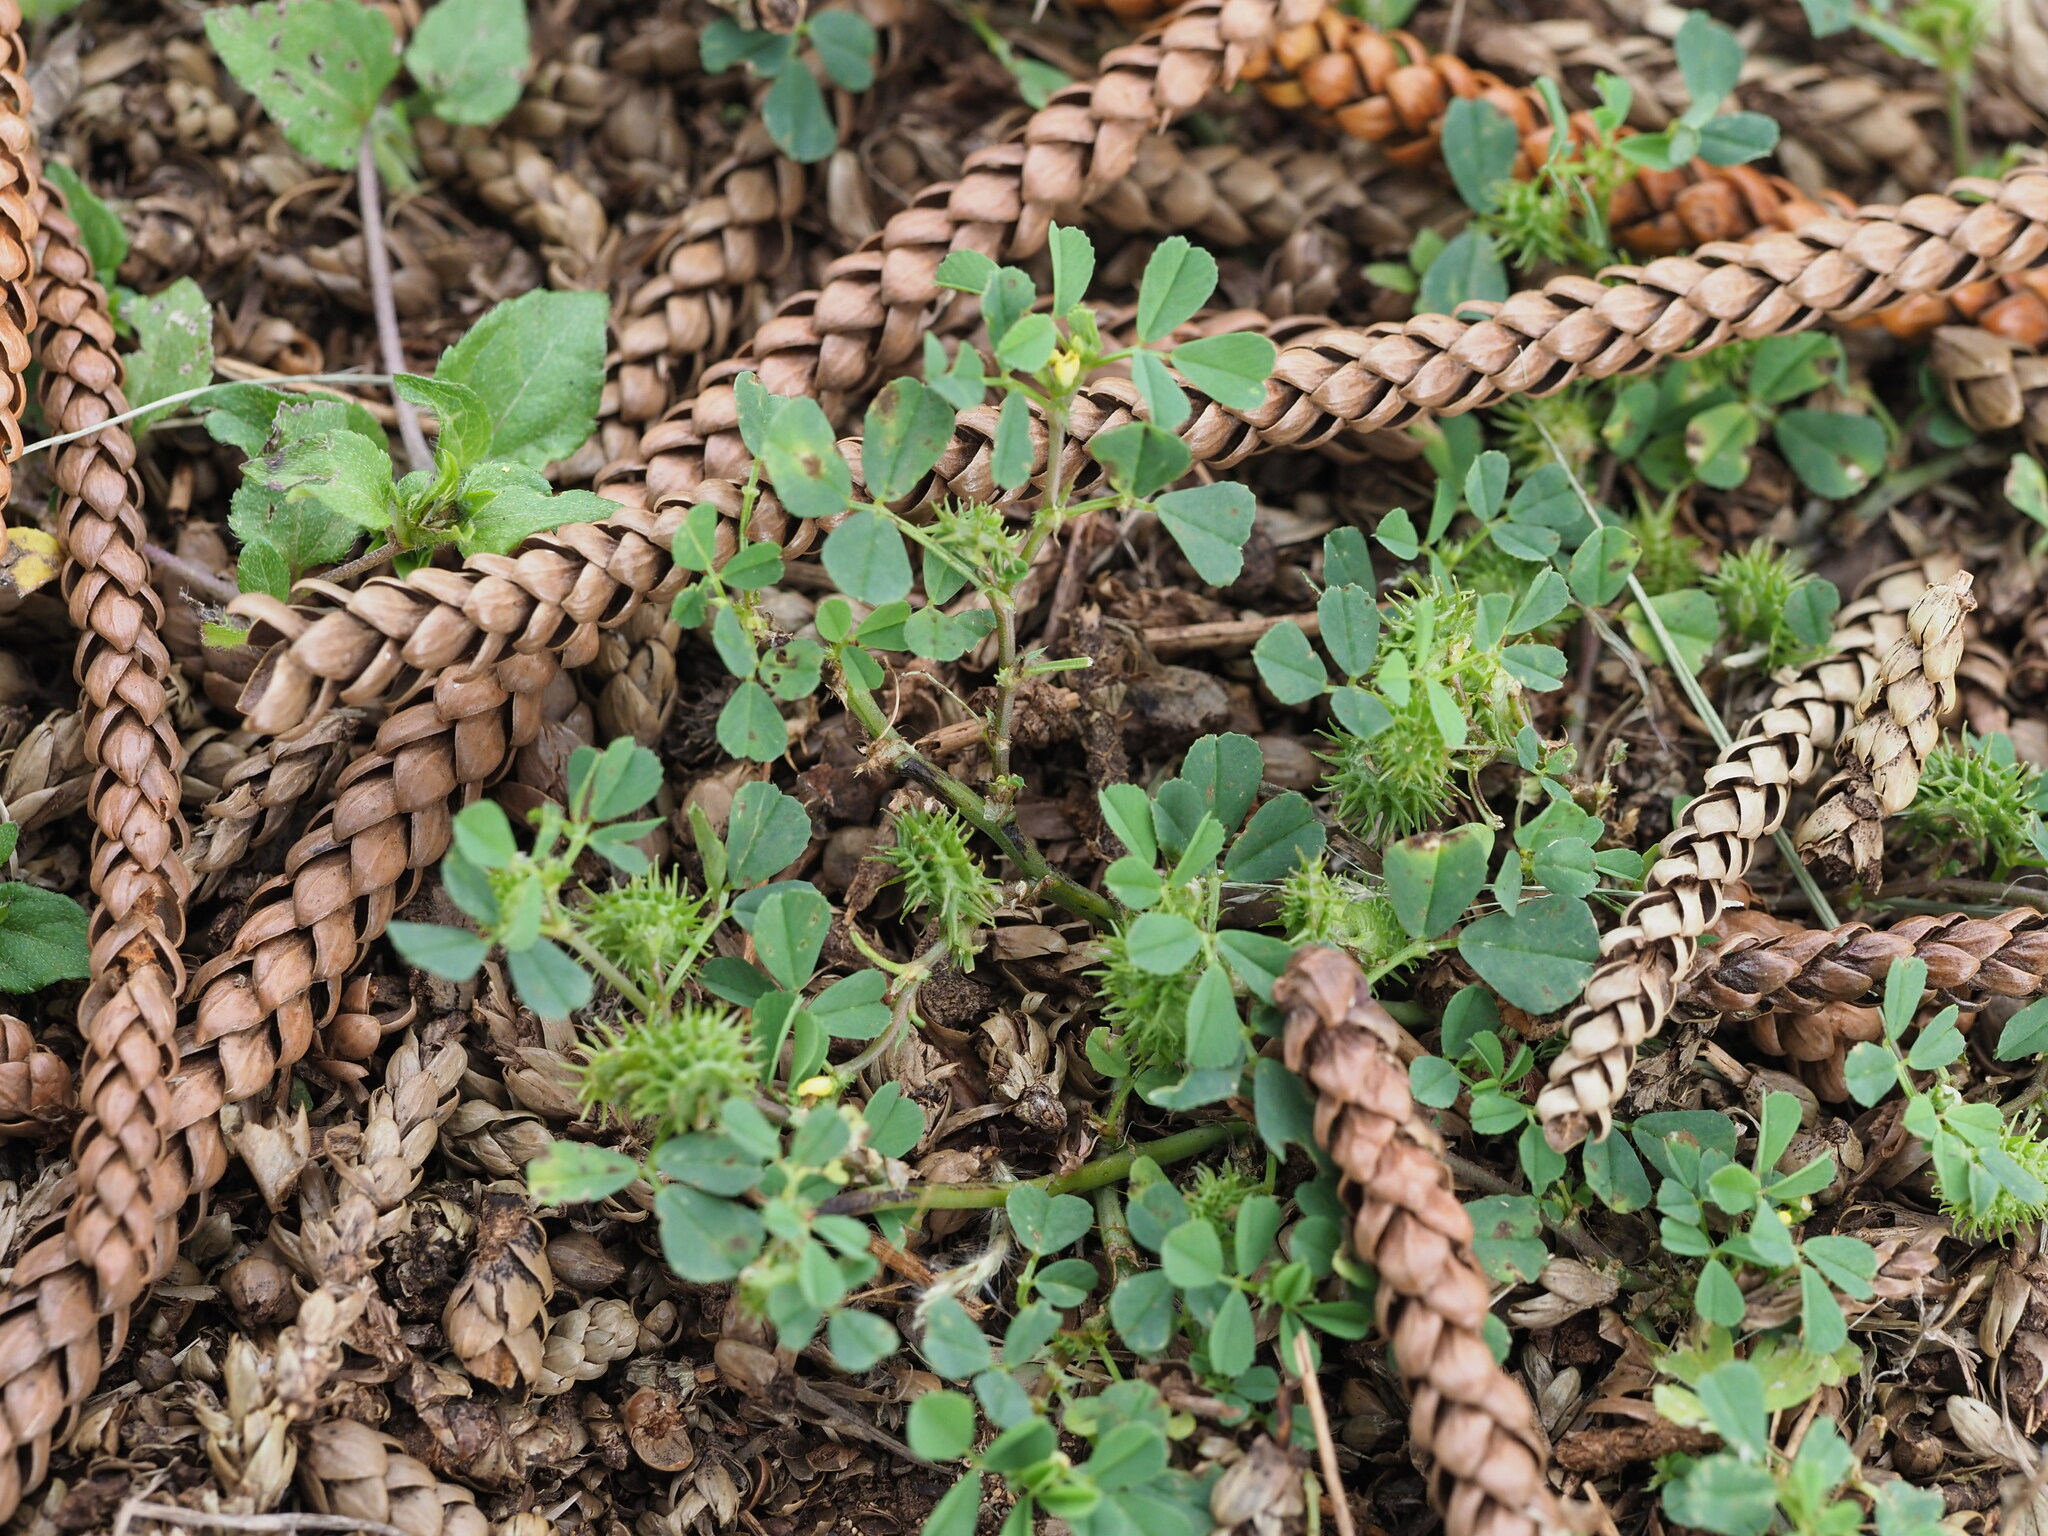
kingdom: Plantae
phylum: Tracheophyta
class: Magnoliopsida
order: Fabales
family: Fabaceae
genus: Medicago
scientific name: Medicago polymorpha
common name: Burclover
